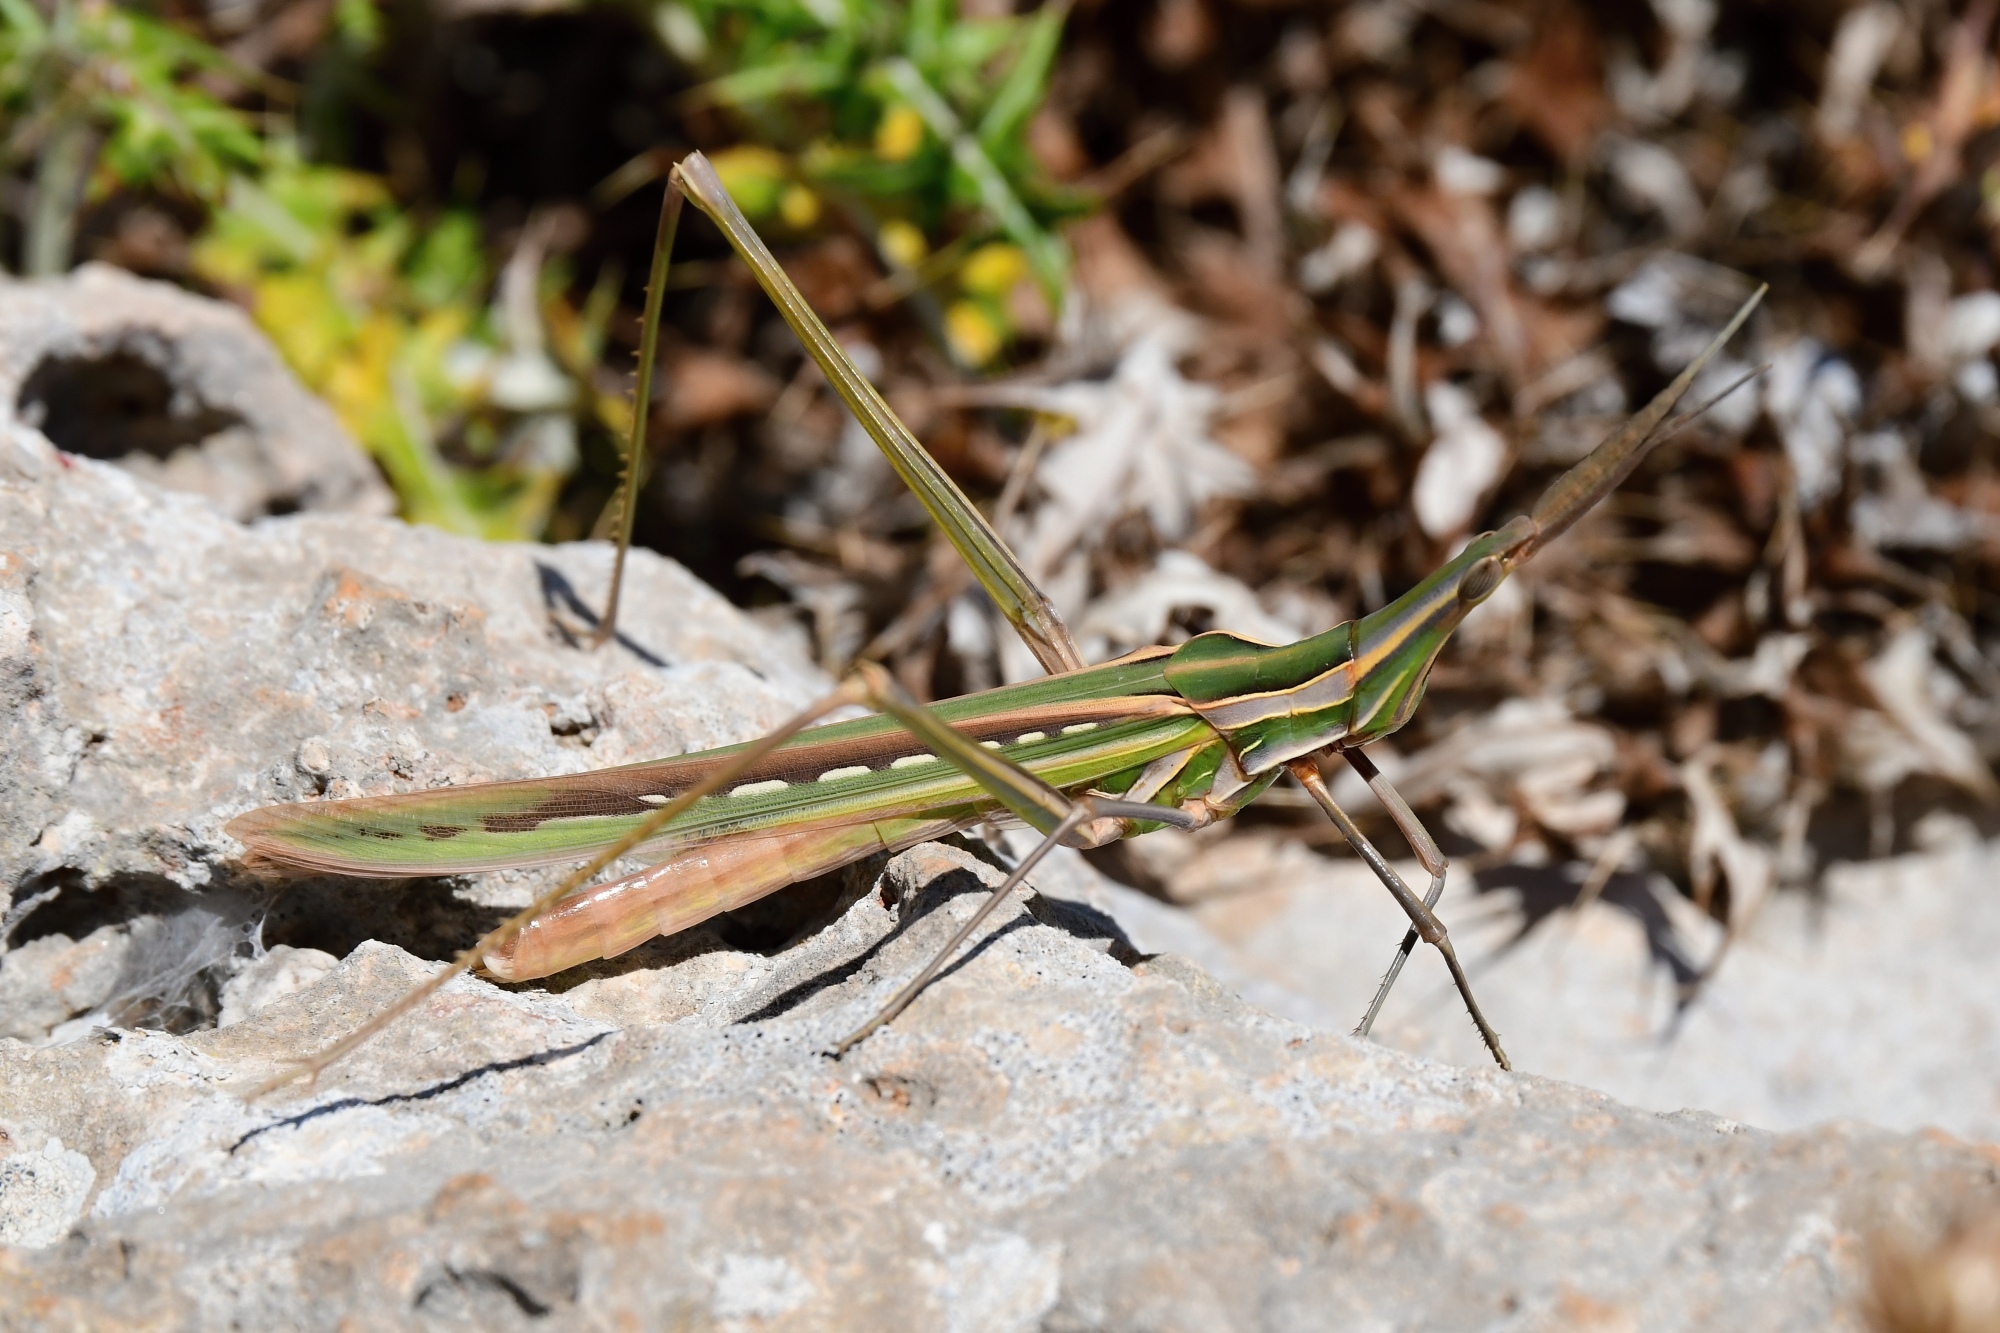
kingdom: Animalia
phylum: Arthropoda
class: Insecta
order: Orthoptera
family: Acrididae
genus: Truxalis
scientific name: Truxalis nasuta
